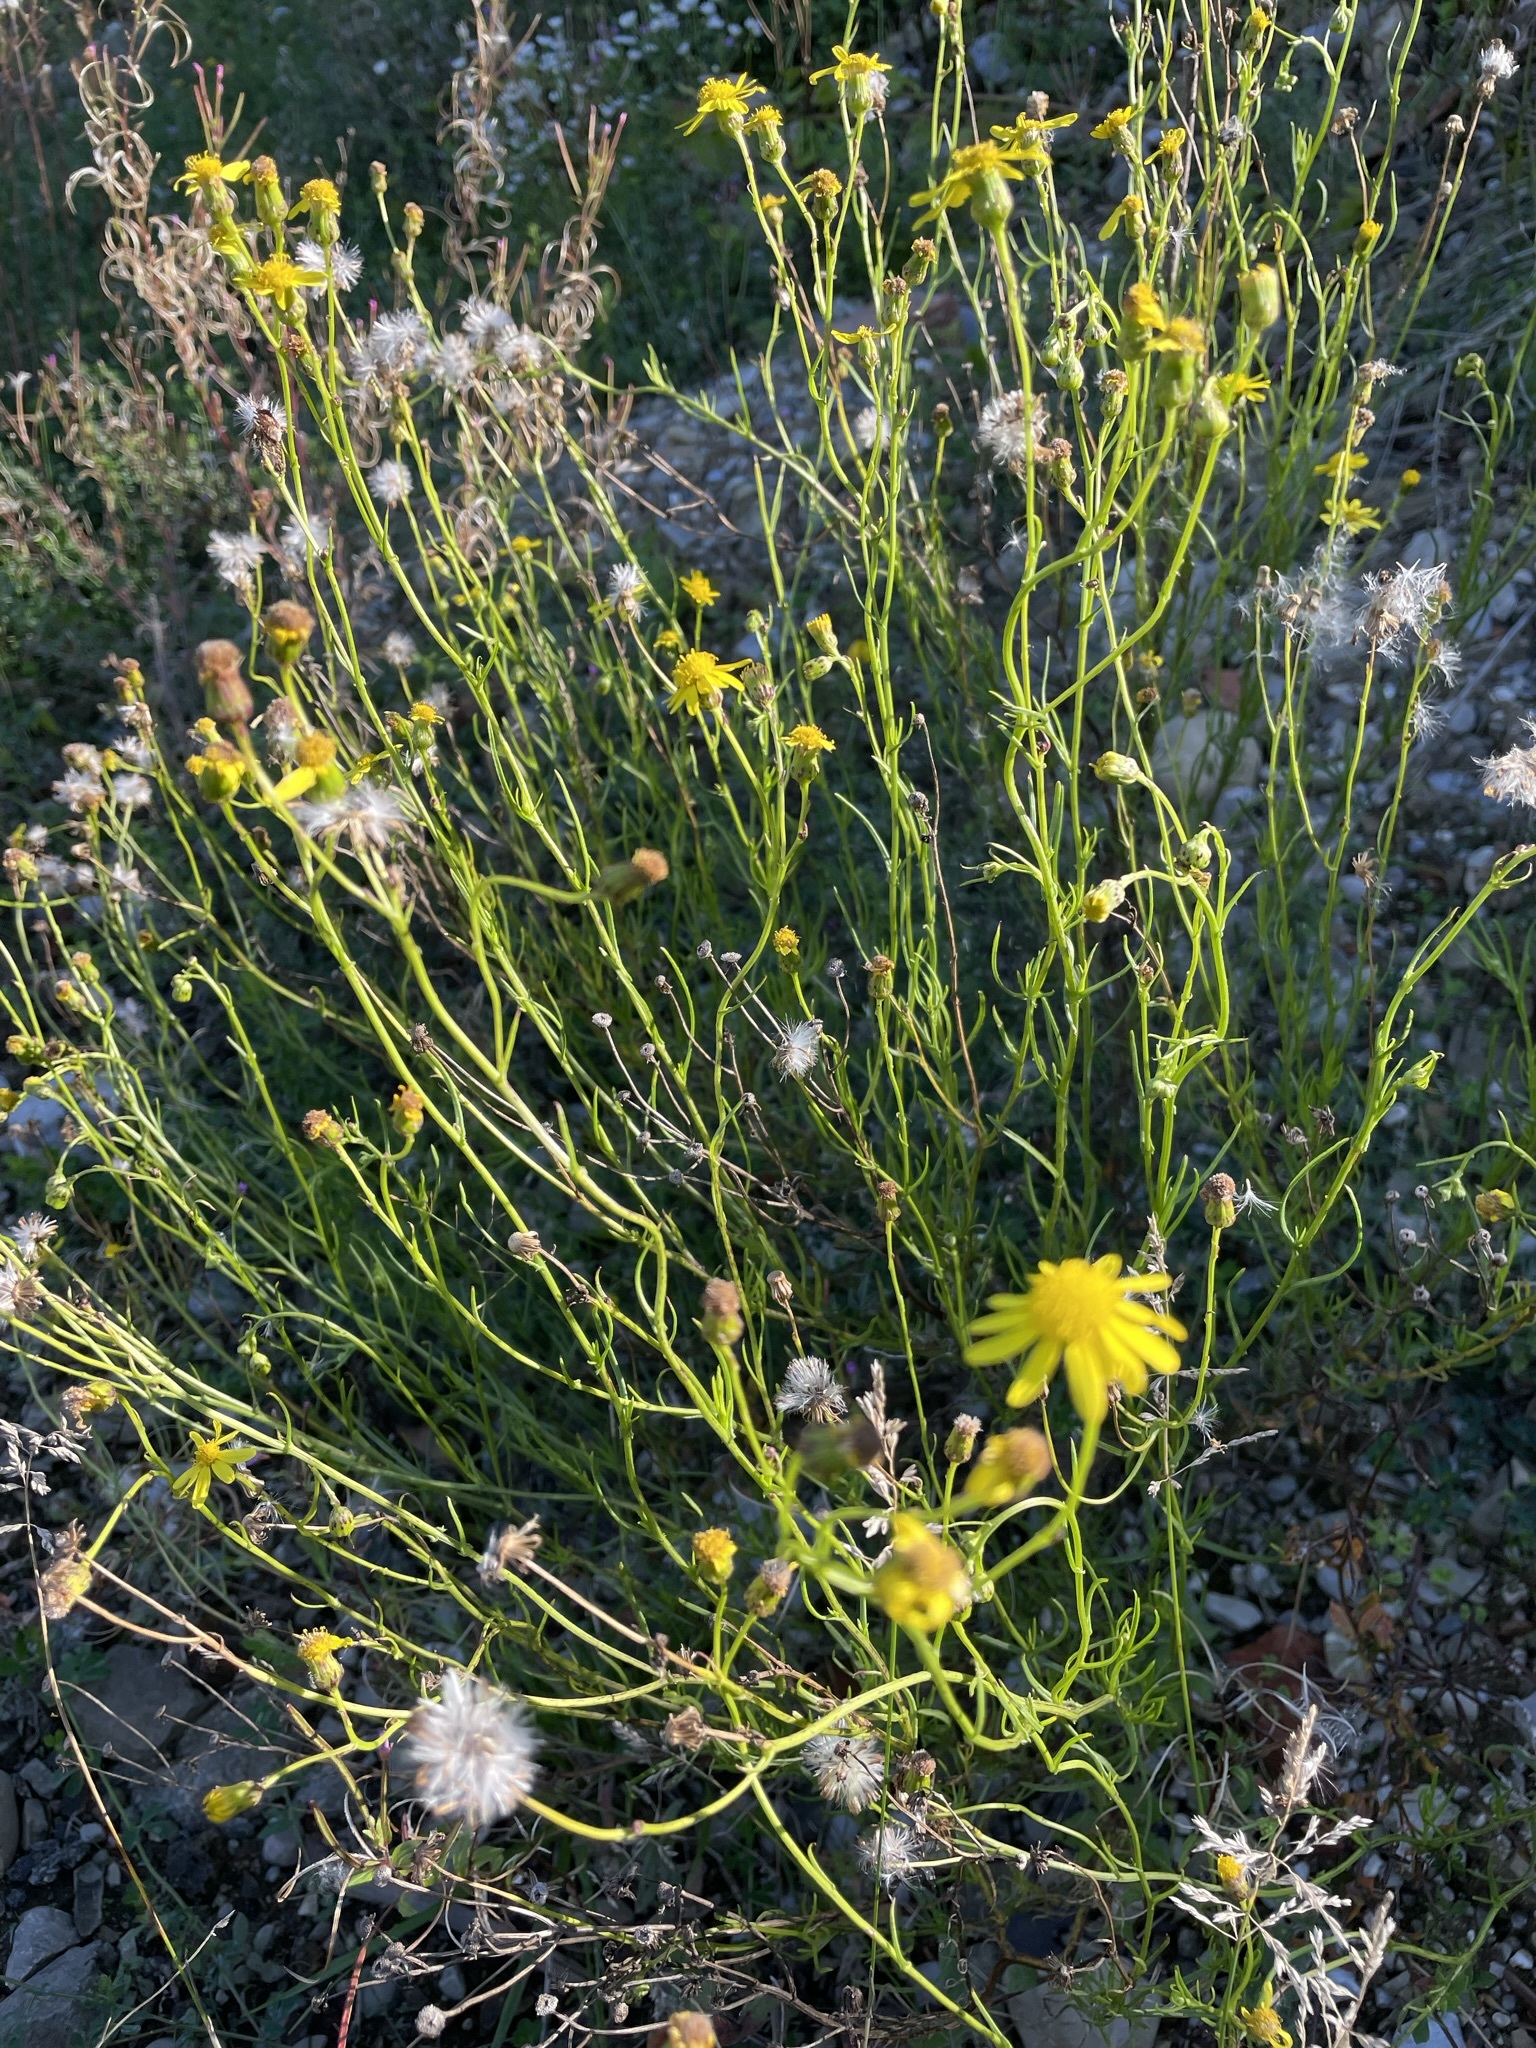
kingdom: Plantae
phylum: Tracheophyta
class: Magnoliopsida
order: Asterales
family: Asteraceae
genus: Senecio
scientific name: Senecio inaequidens
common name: Narrow-leaved ragwort
